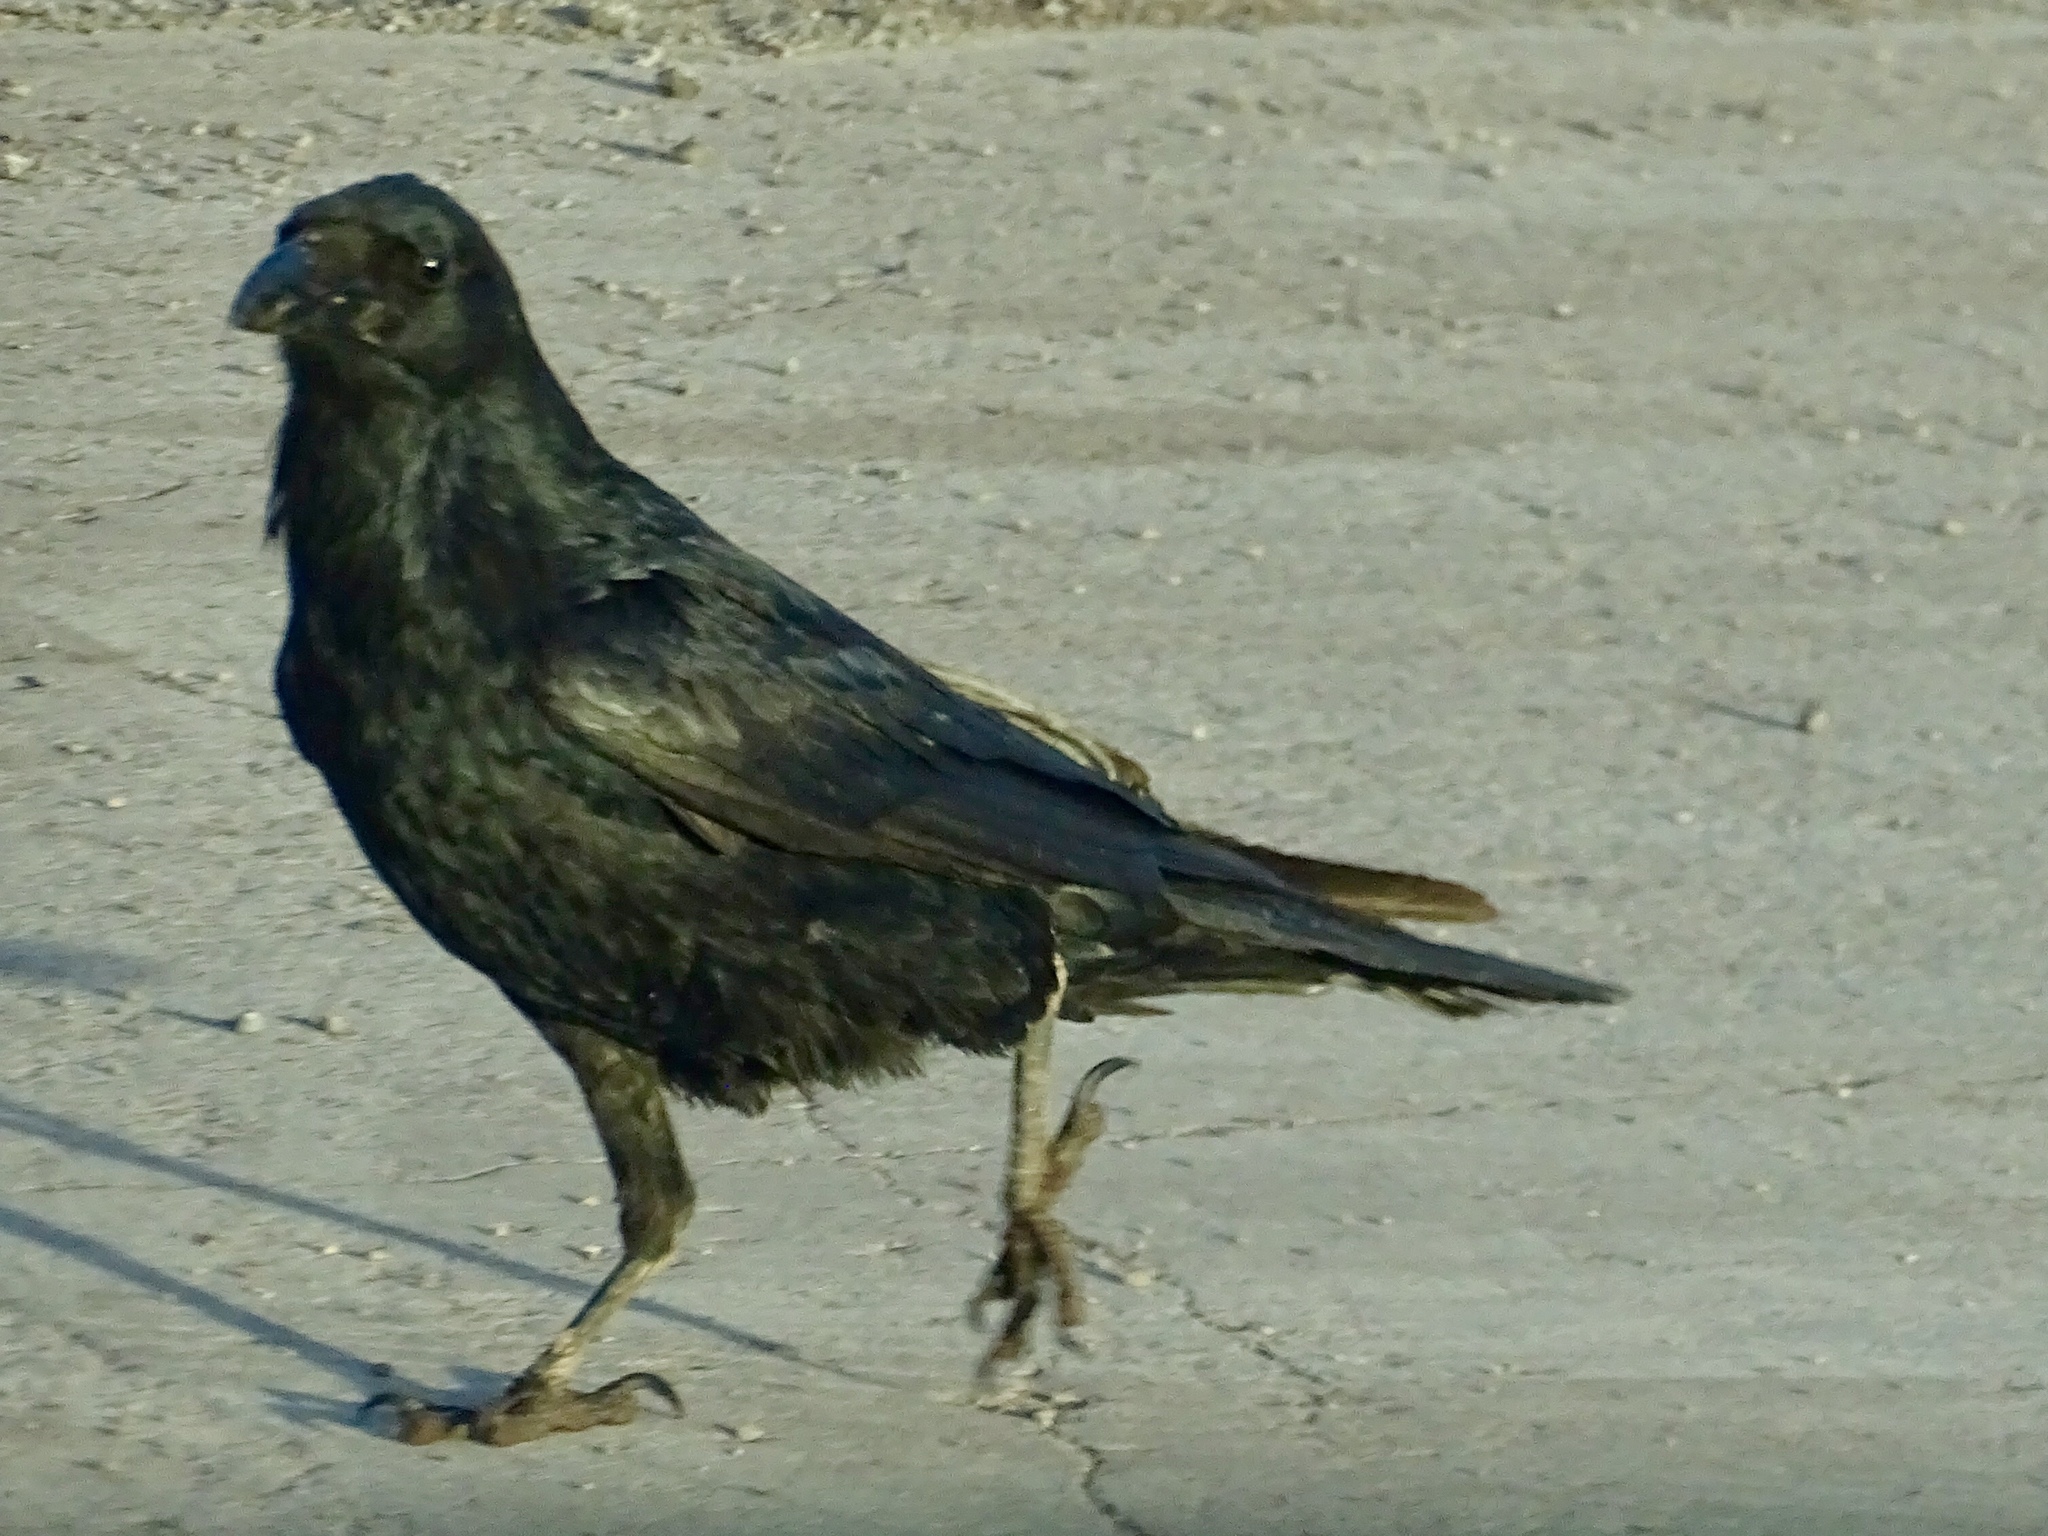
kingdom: Animalia
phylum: Chordata
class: Aves
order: Passeriformes
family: Corvidae
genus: Corvus
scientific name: Corvus corax
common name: Common raven
